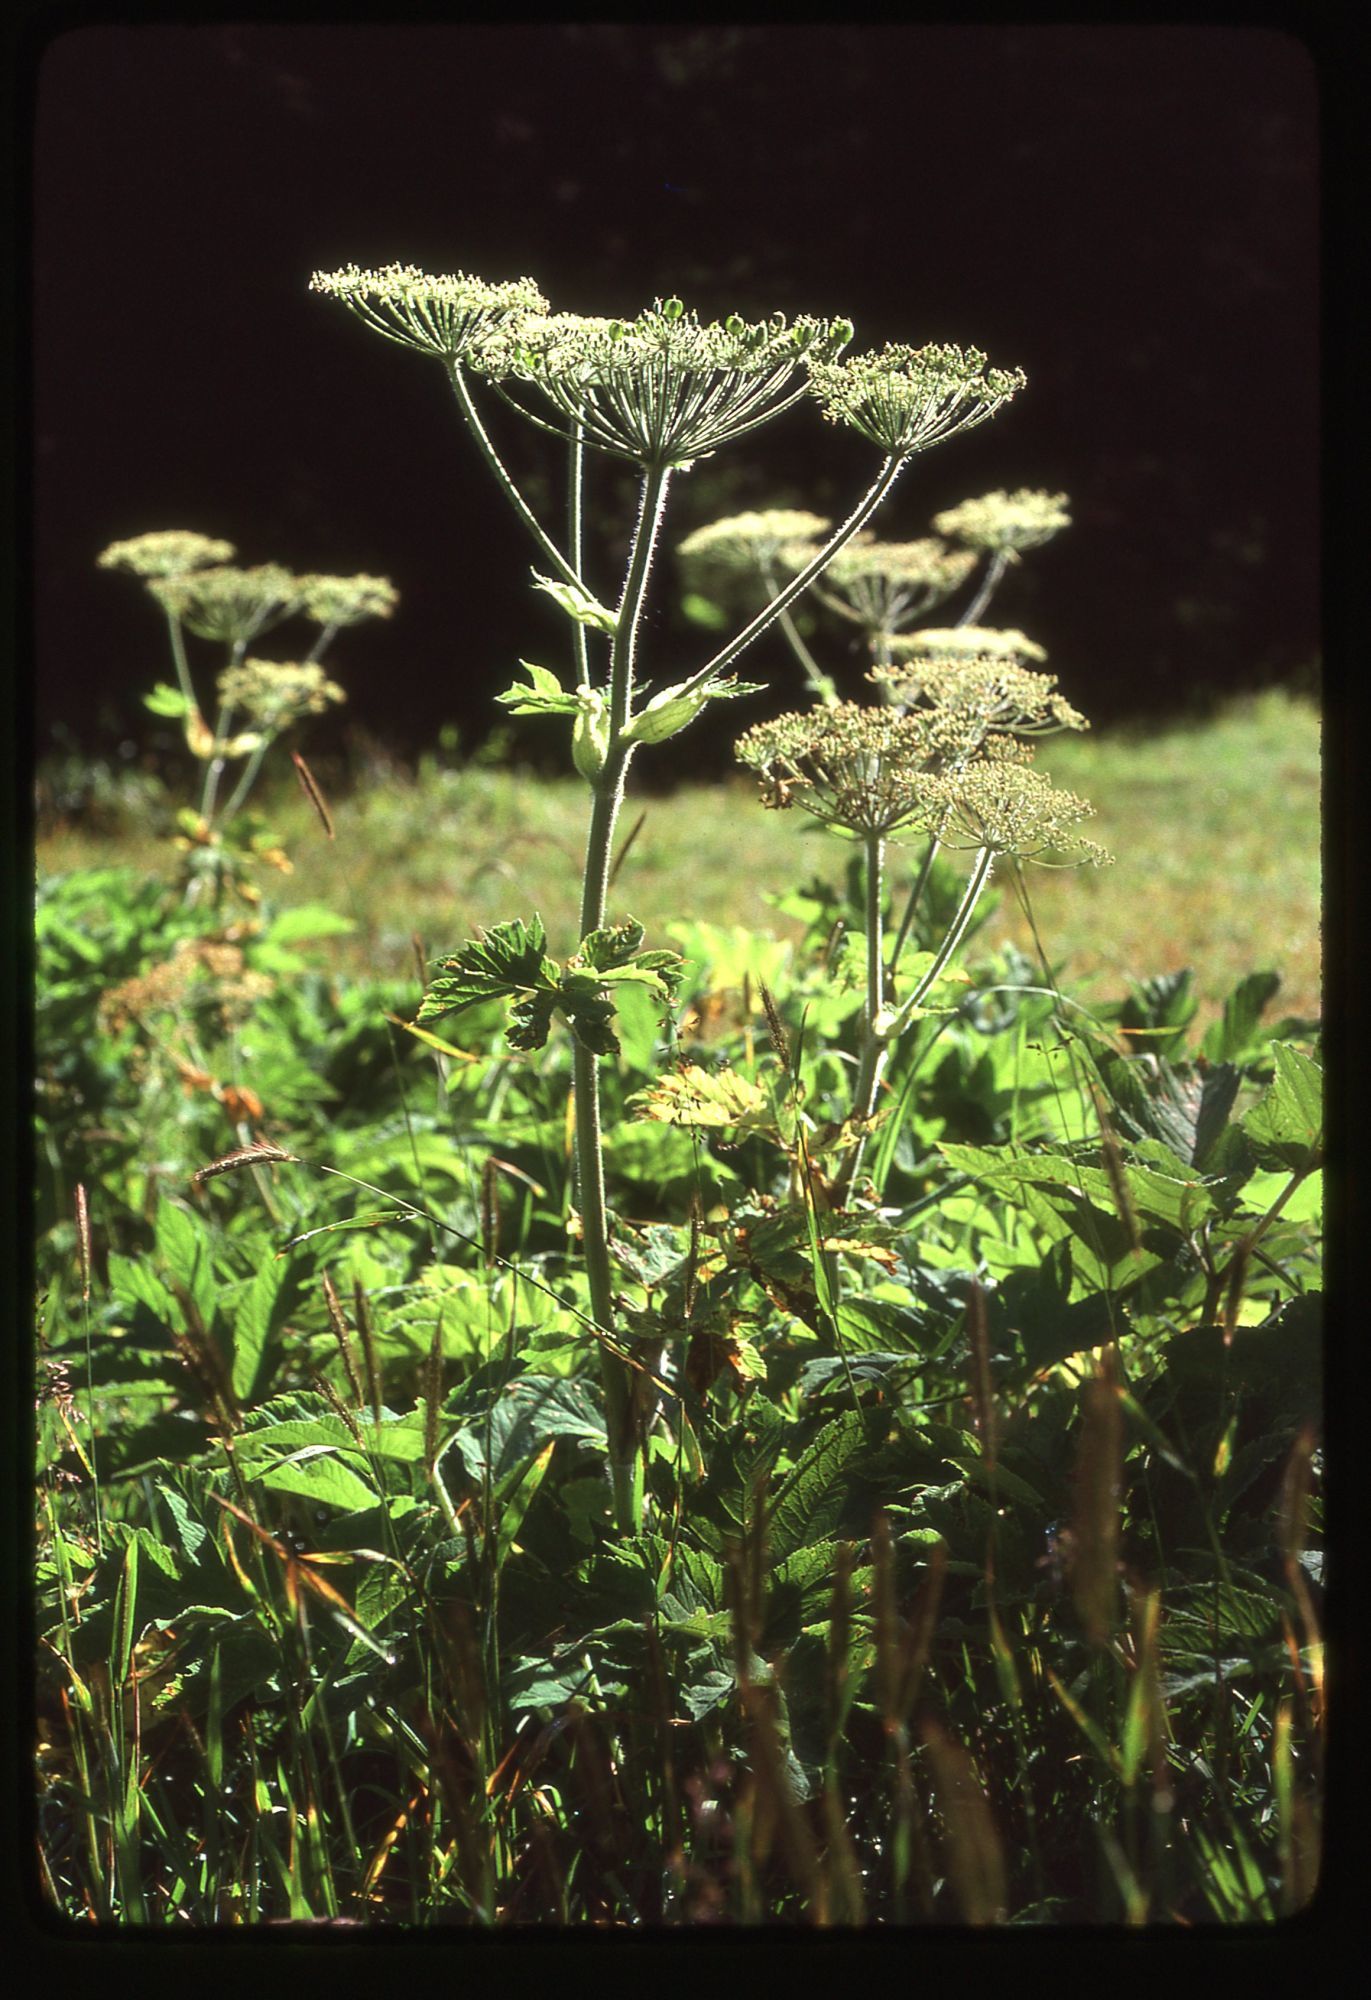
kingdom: Plantae
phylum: Tracheophyta
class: Magnoliopsida
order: Apiales
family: Apiaceae
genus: Heracleum
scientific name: Heracleum maximum
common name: American cow parsnip
